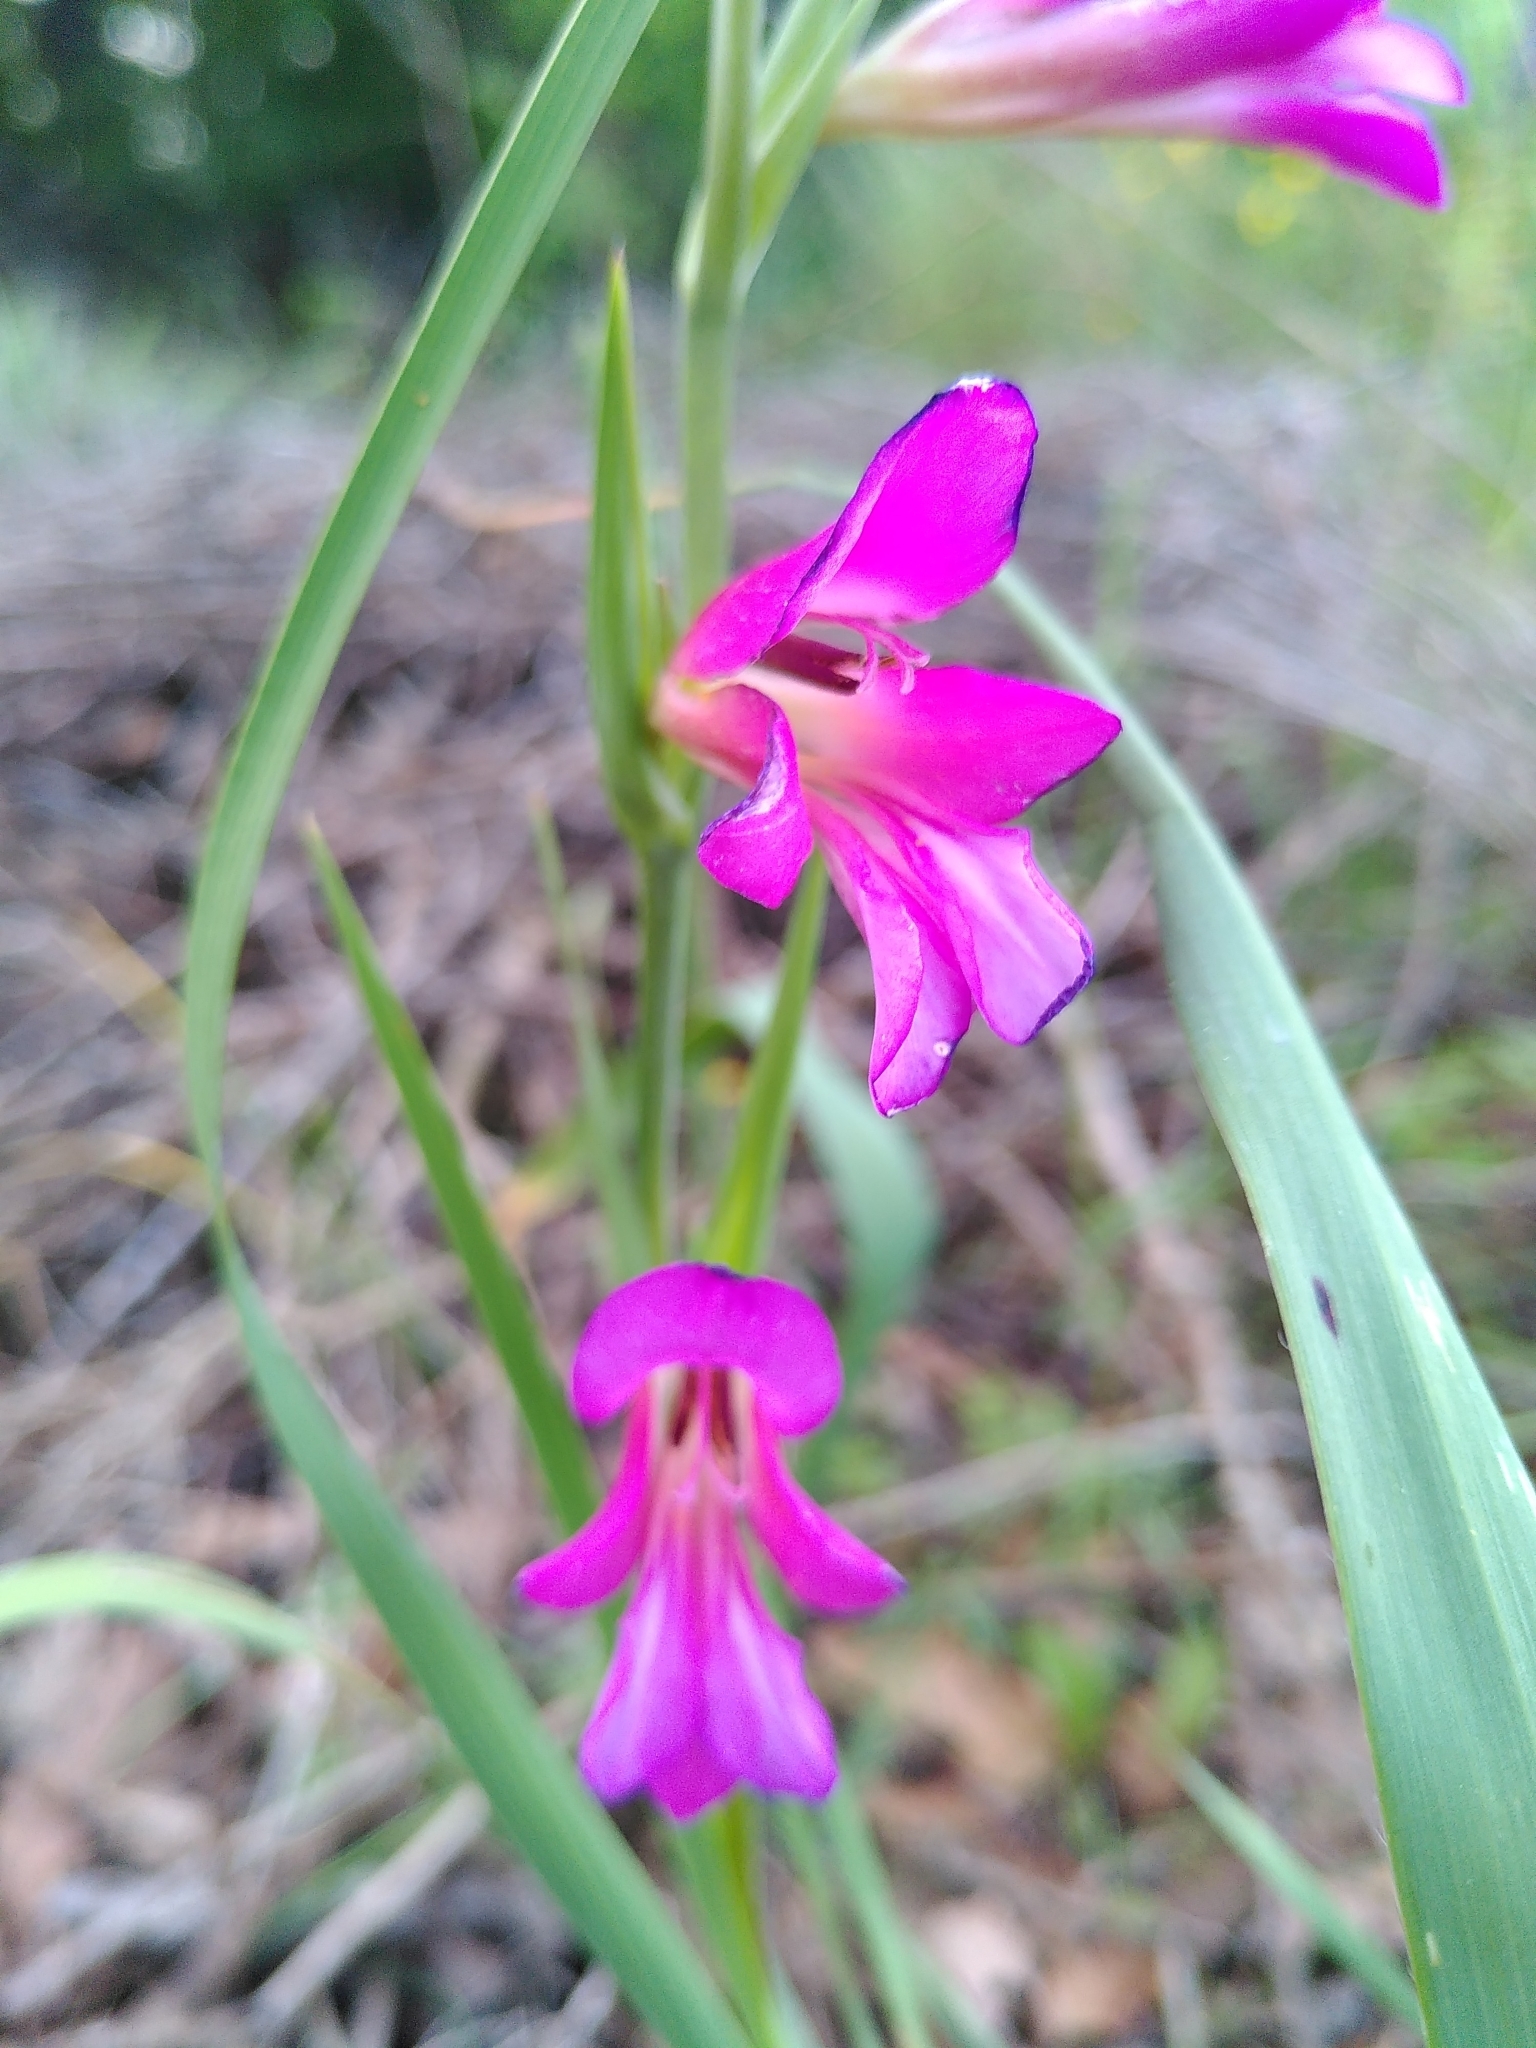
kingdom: Plantae
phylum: Tracheophyta
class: Liliopsida
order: Asparagales
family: Iridaceae
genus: Gladiolus
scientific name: Gladiolus italicus
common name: Field gladiolus
